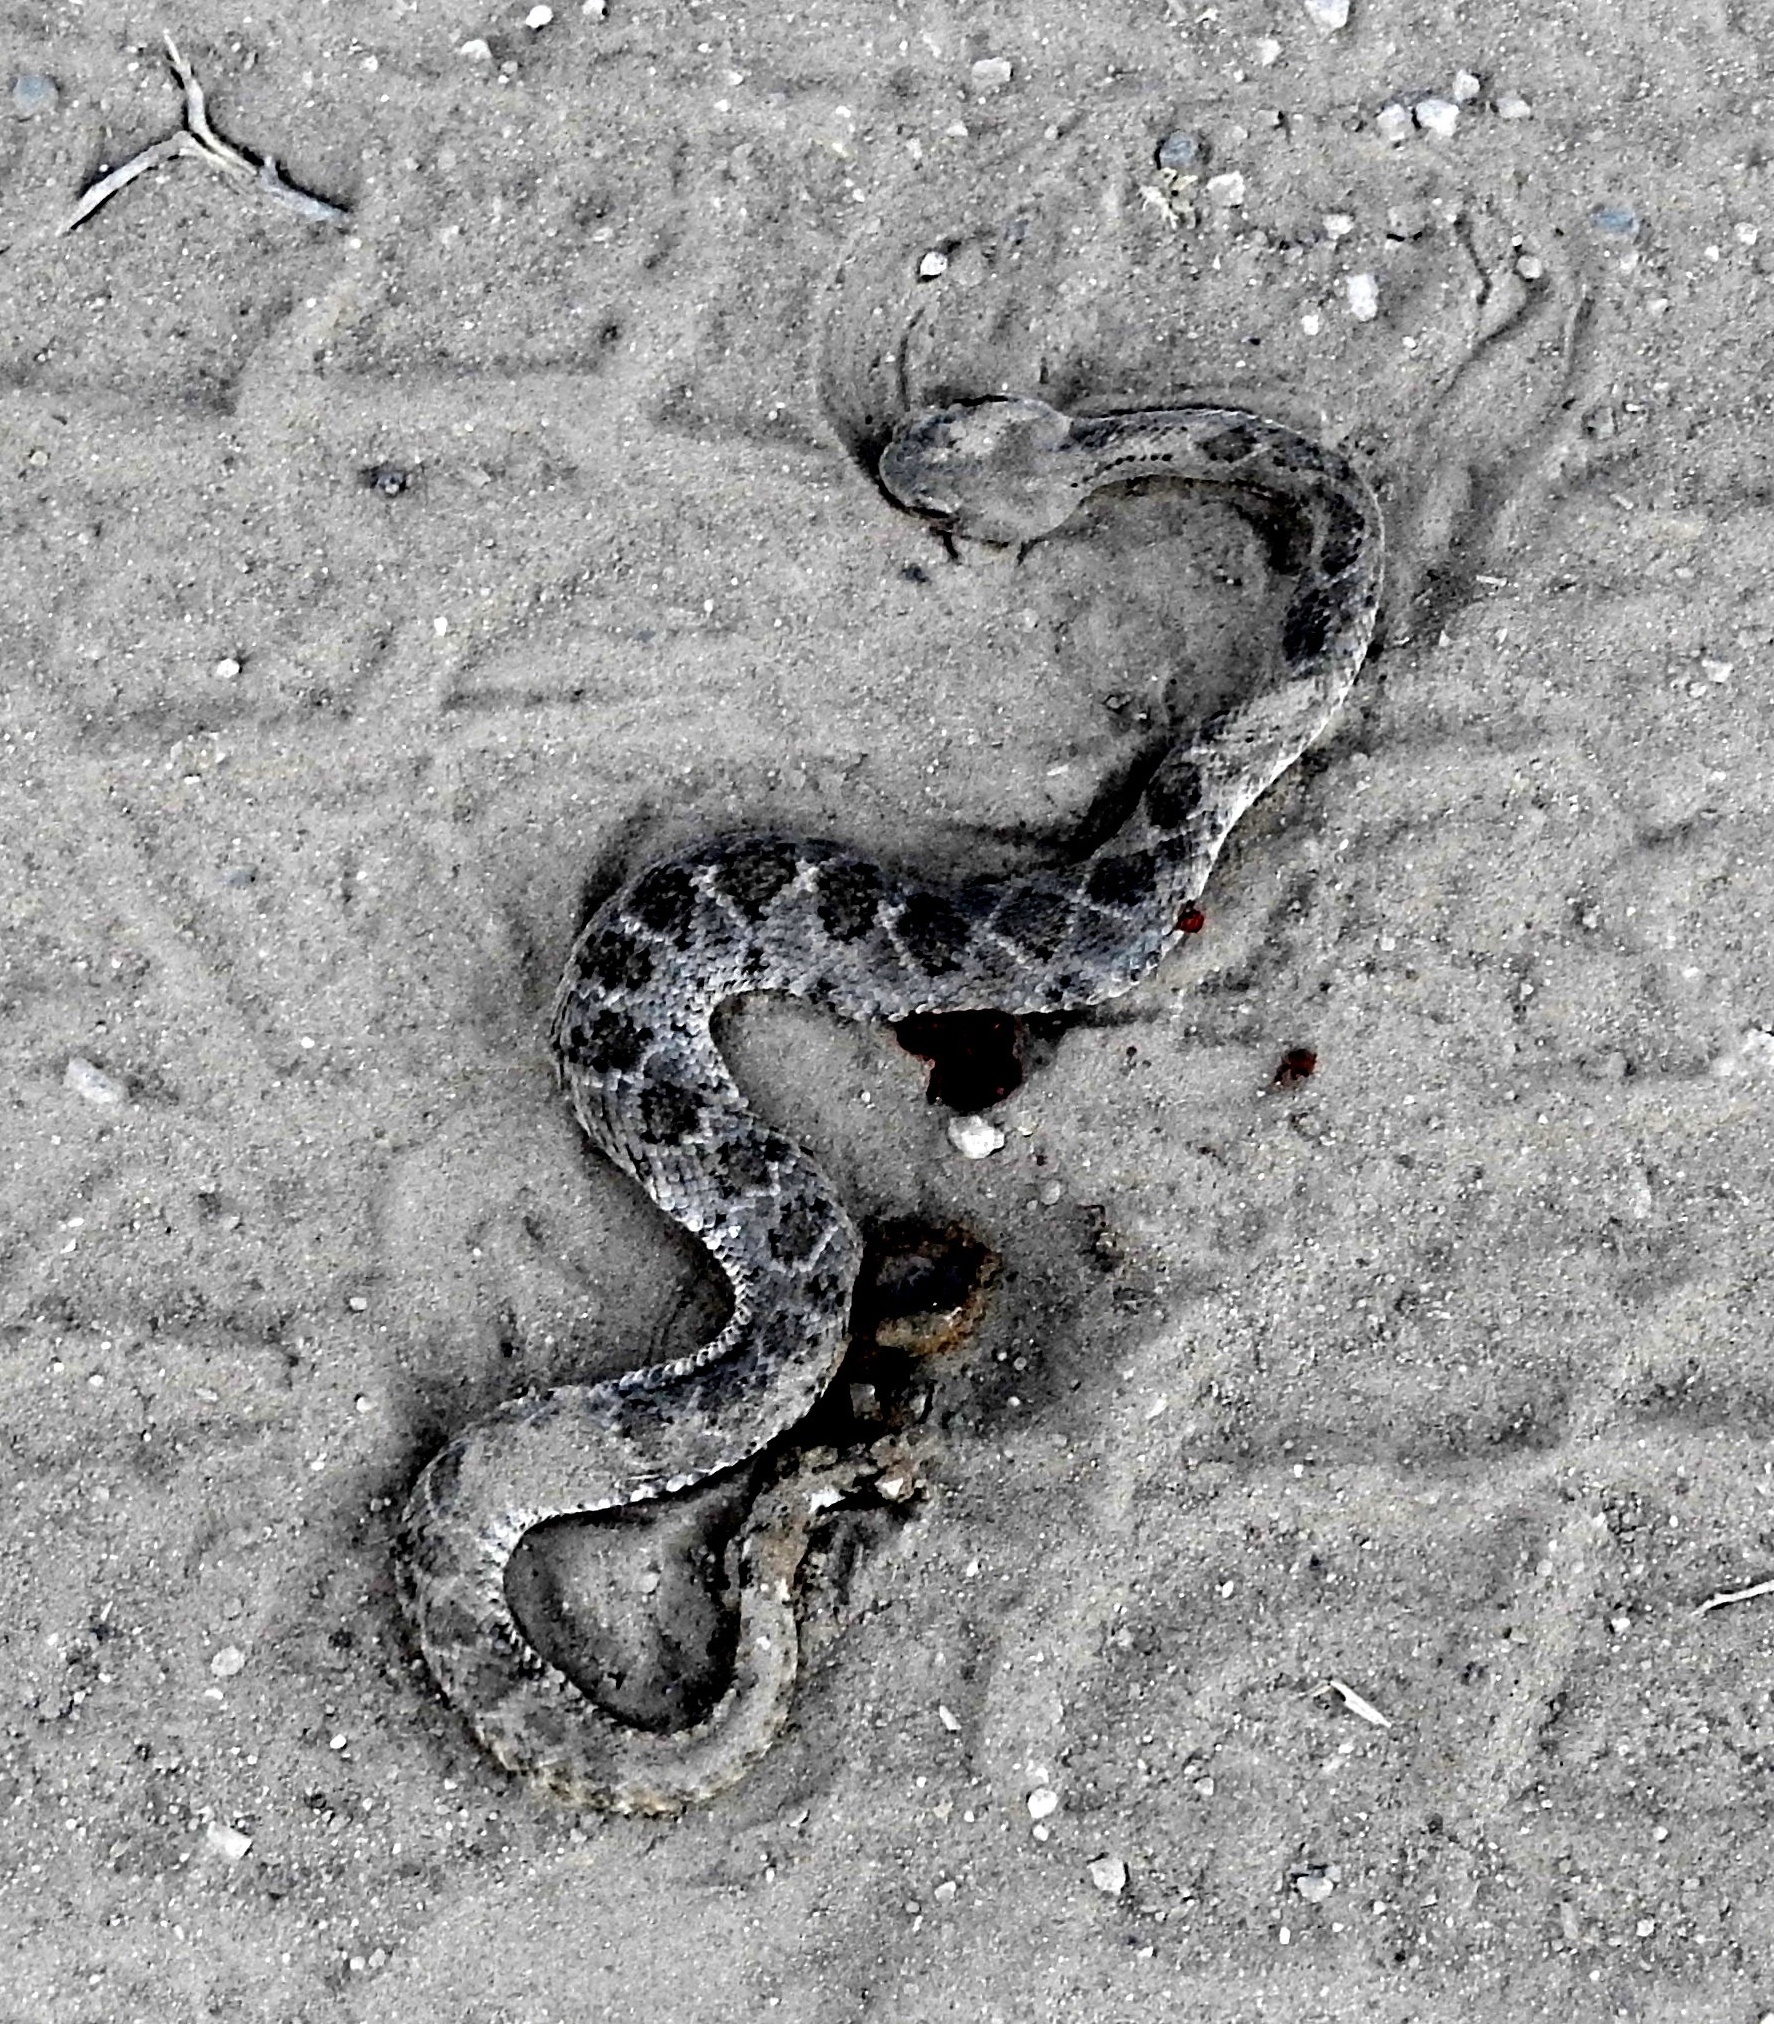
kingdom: Animalia
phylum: Chordata
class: Squamata
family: Viperidae
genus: Crotalus
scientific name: Crotalus atrox
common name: Western diamond-backed rattlesnake
